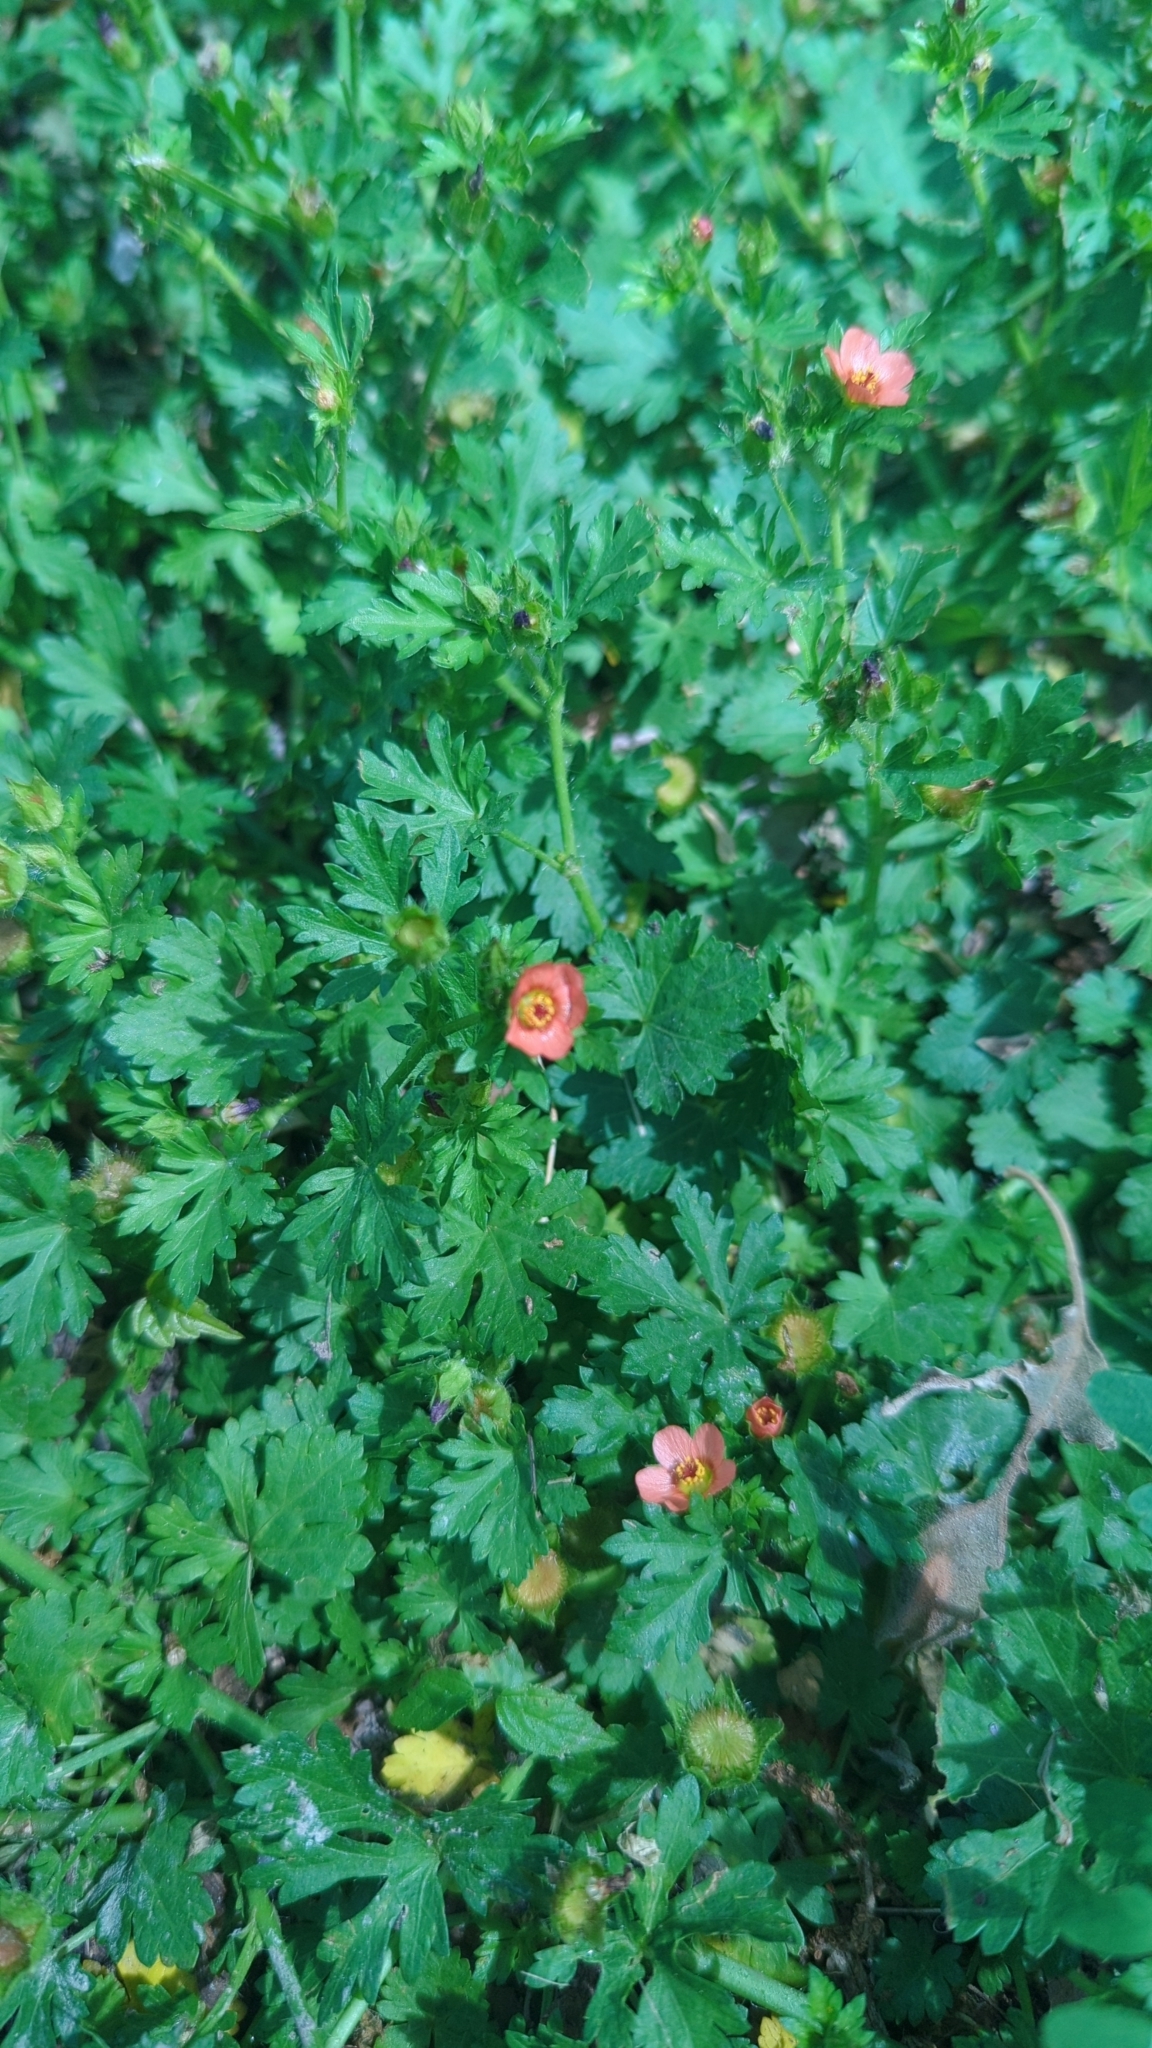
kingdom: Plantae
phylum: Tracheophyta
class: Magnoliopsida
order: Malvales
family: Malvaceae
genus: Modiola
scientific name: Modiola caroliniana
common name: Carolina bristlemallow
